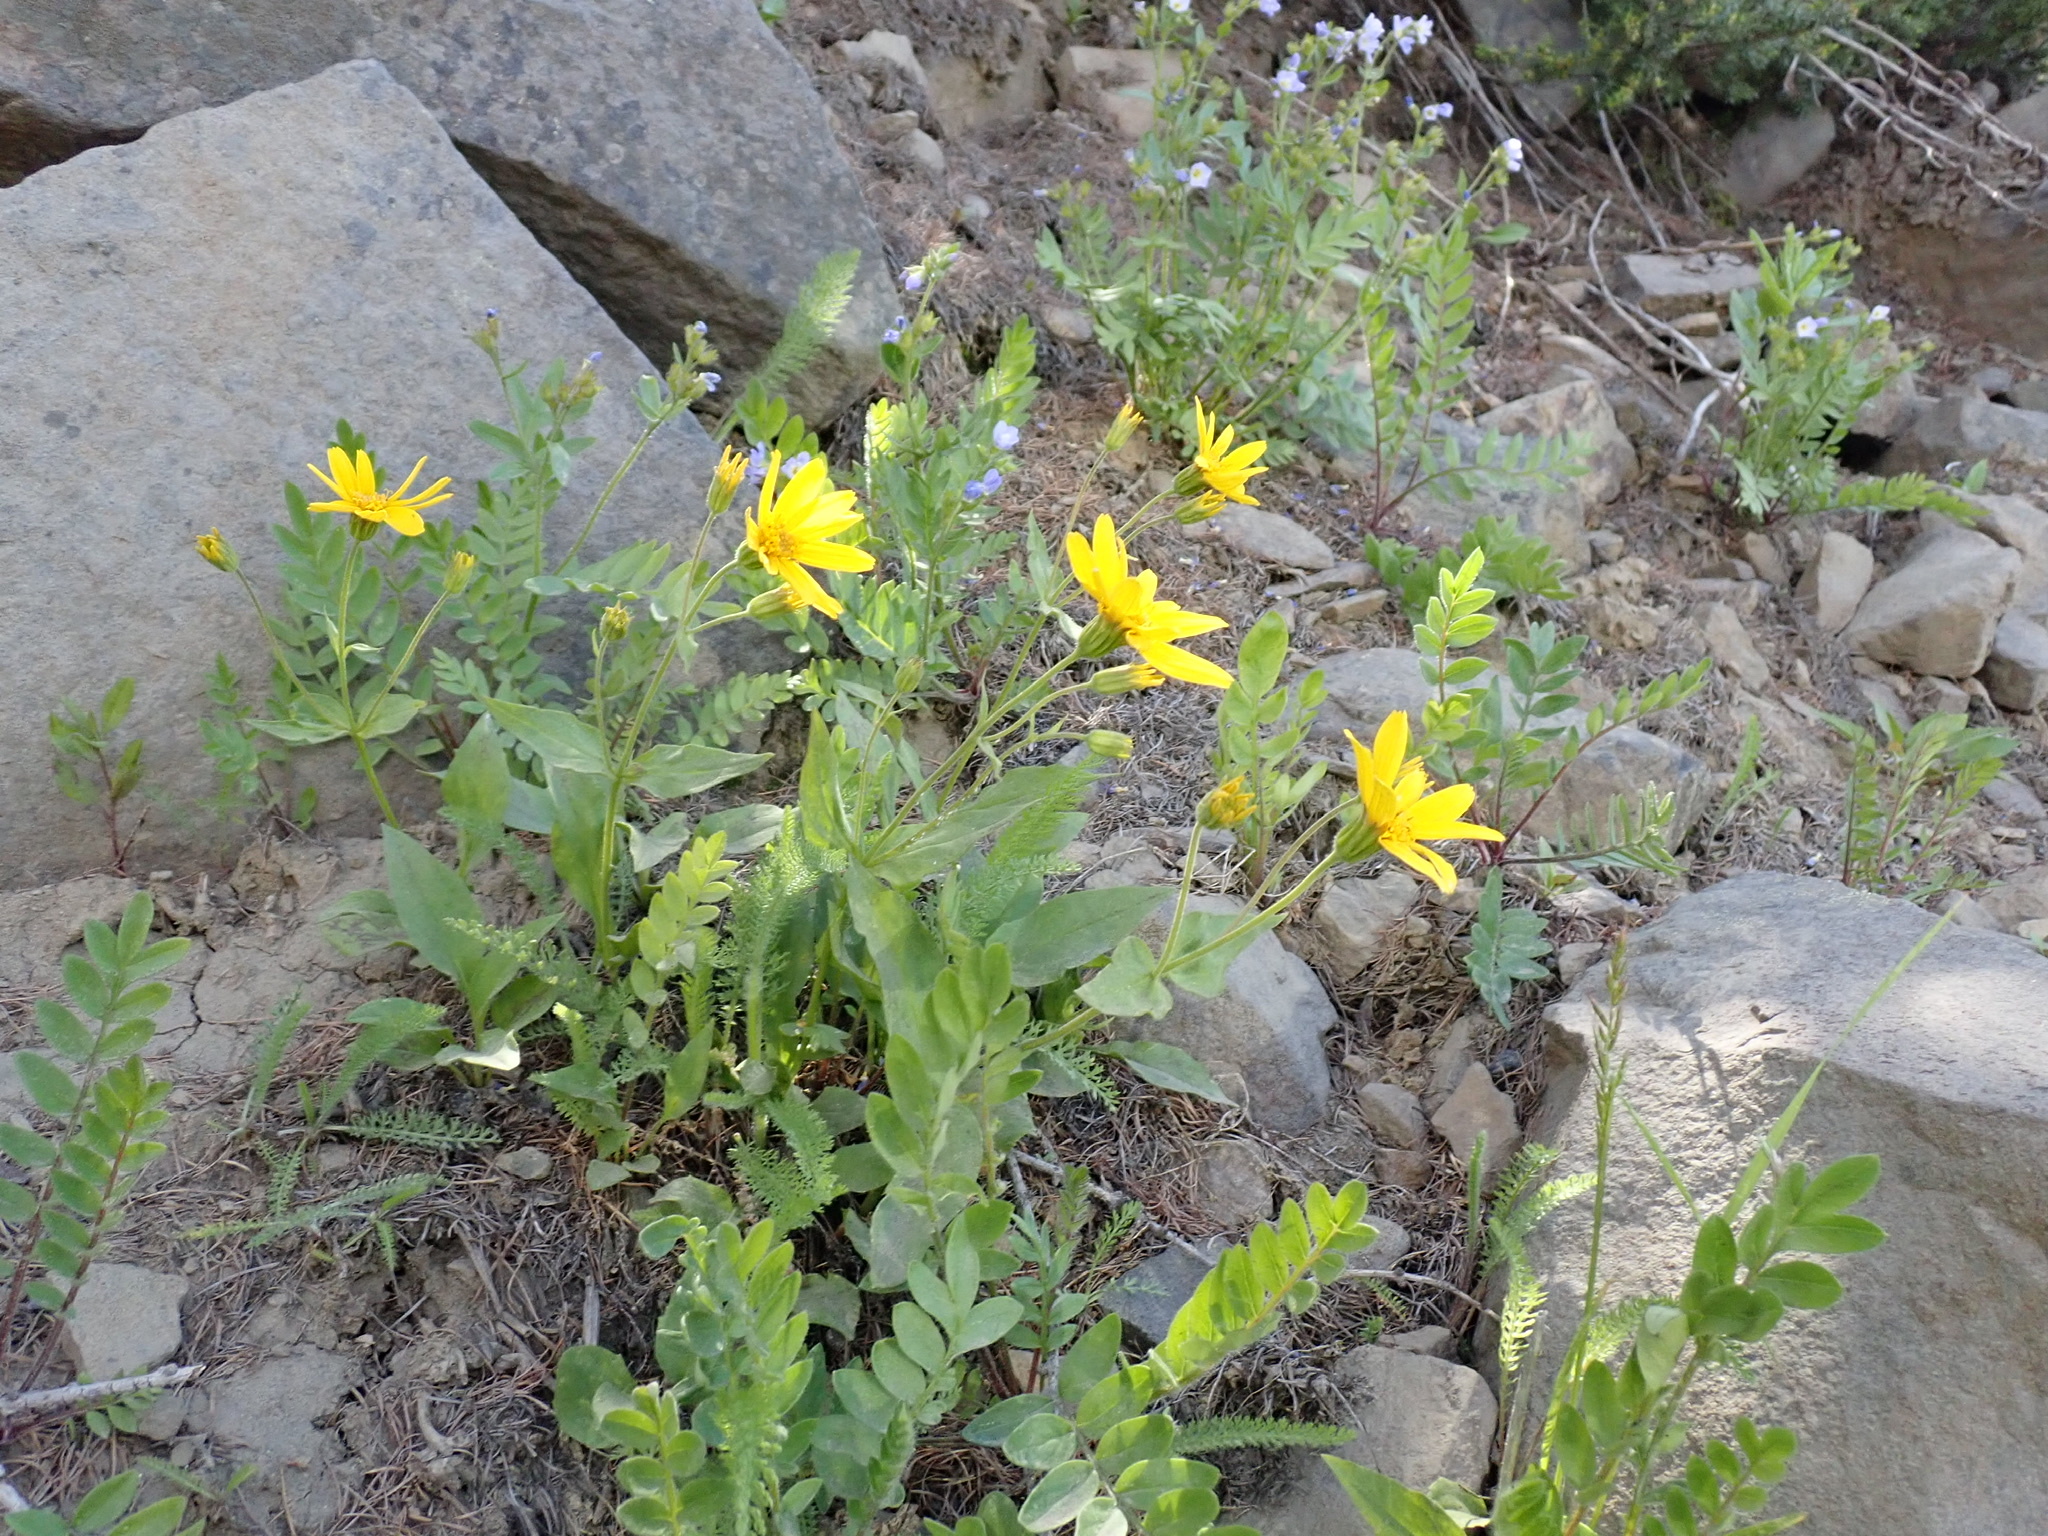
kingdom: Plantae
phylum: Tracheophyta
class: Magnoliopsida
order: Asterales
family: Asteraceae
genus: Arnica
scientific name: Arnica latifolia
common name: Arnica
